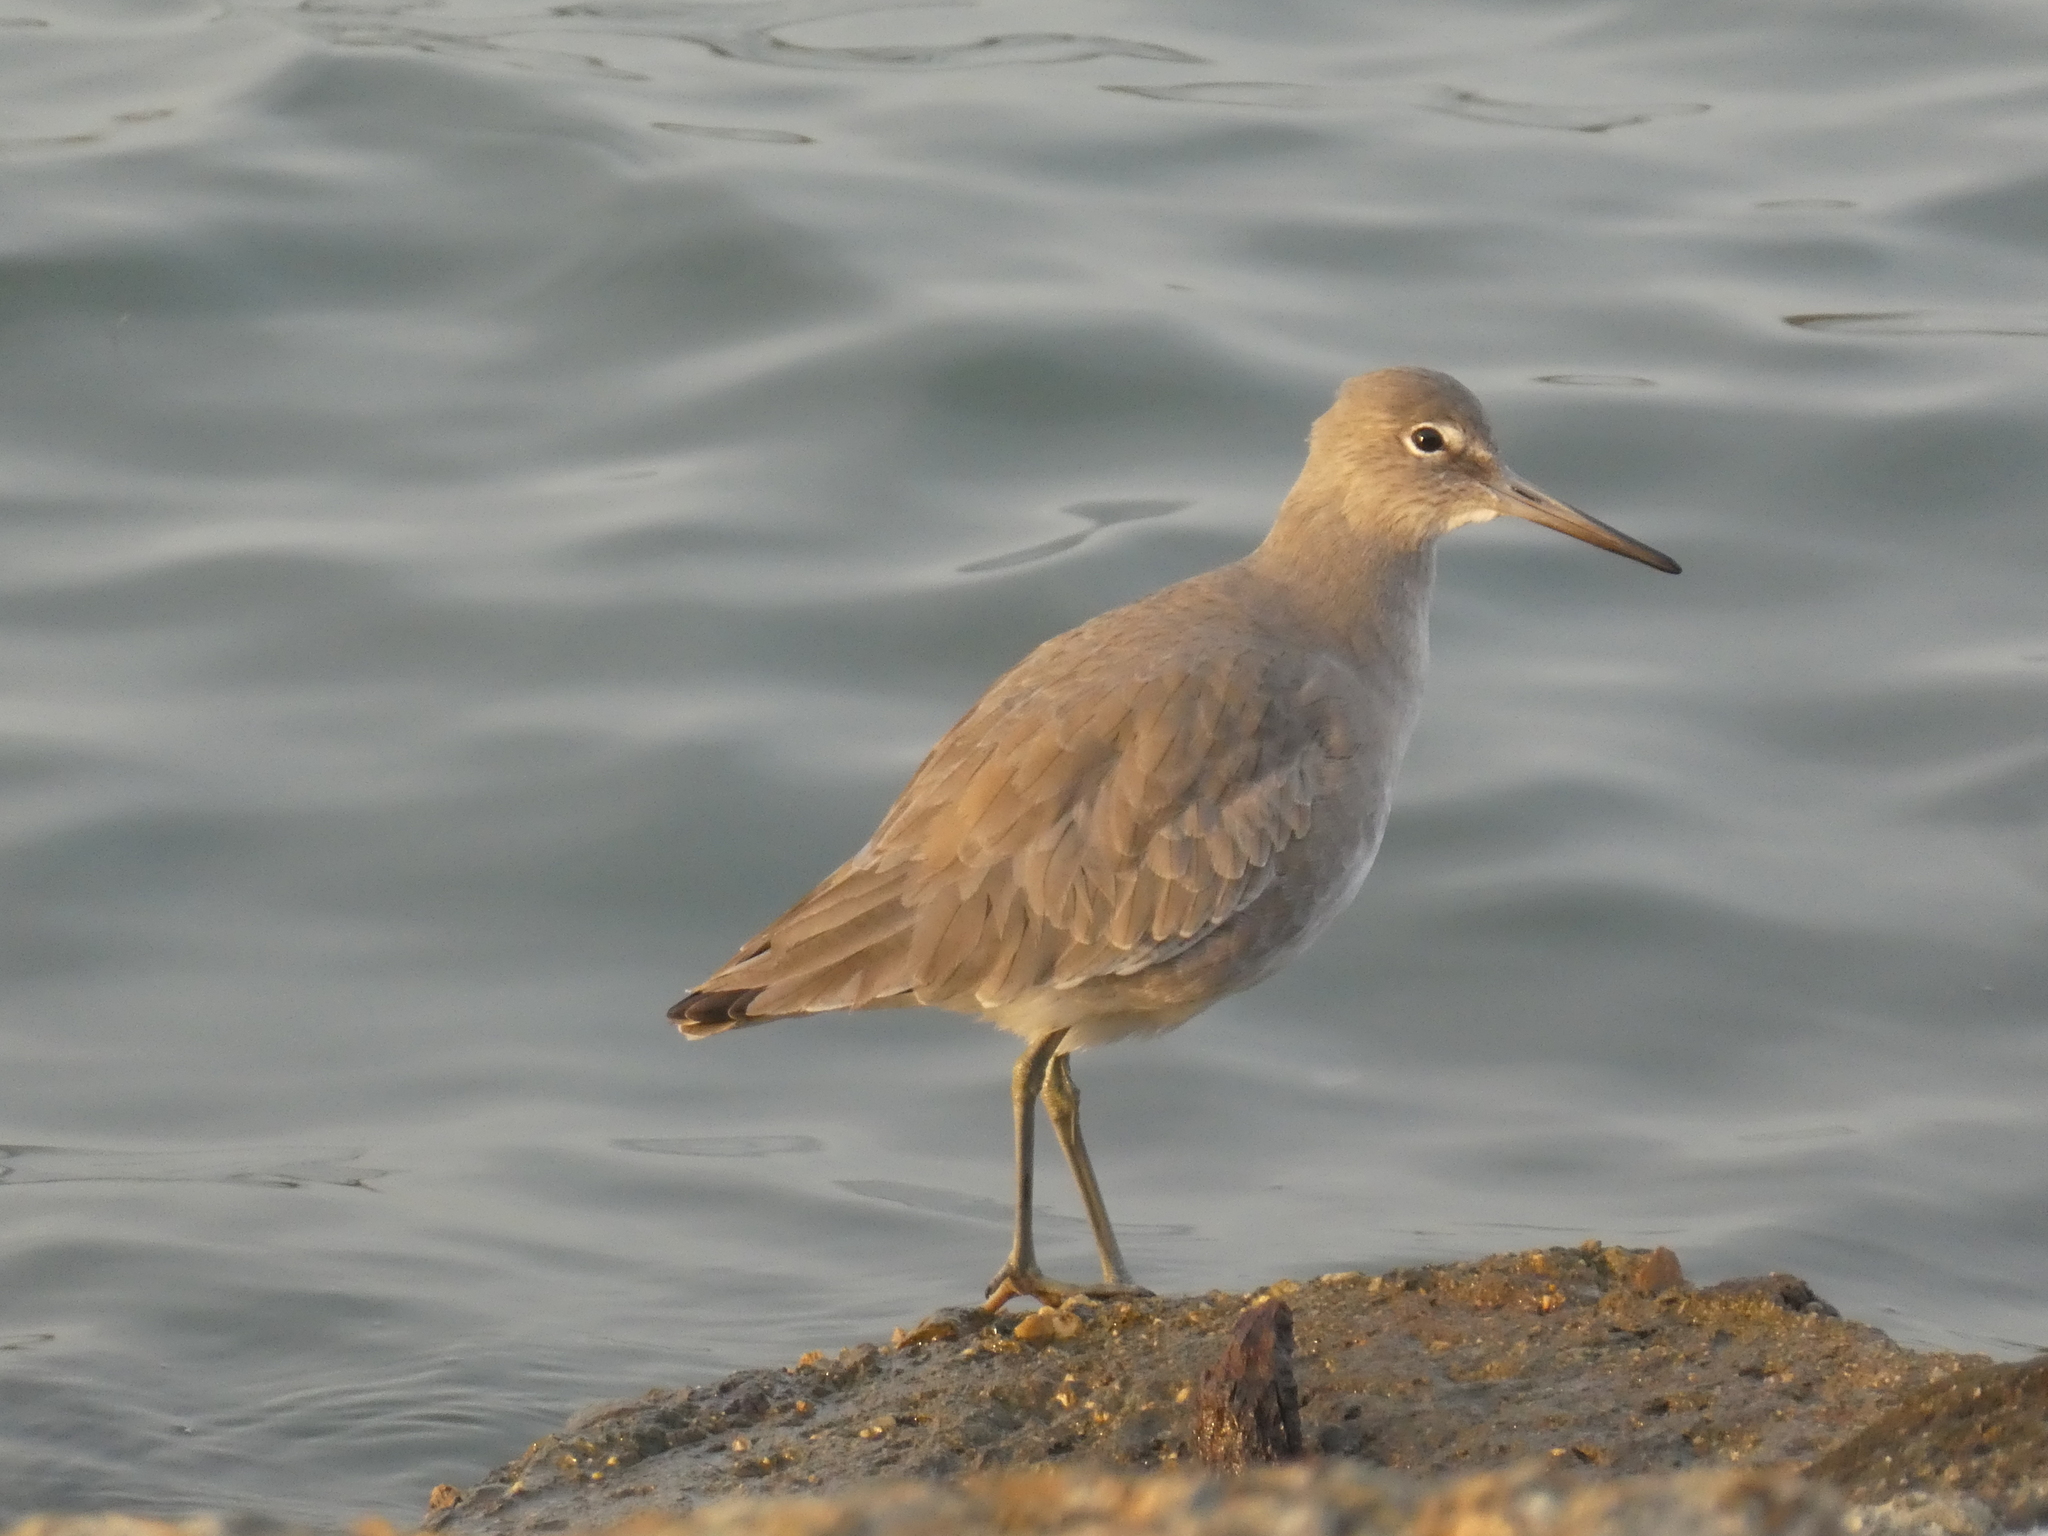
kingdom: Animalia
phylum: Chordata
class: Aves
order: Charadriiformes
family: Scolopacidae
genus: Tringa
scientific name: Tringa semipalmata
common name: Willet
